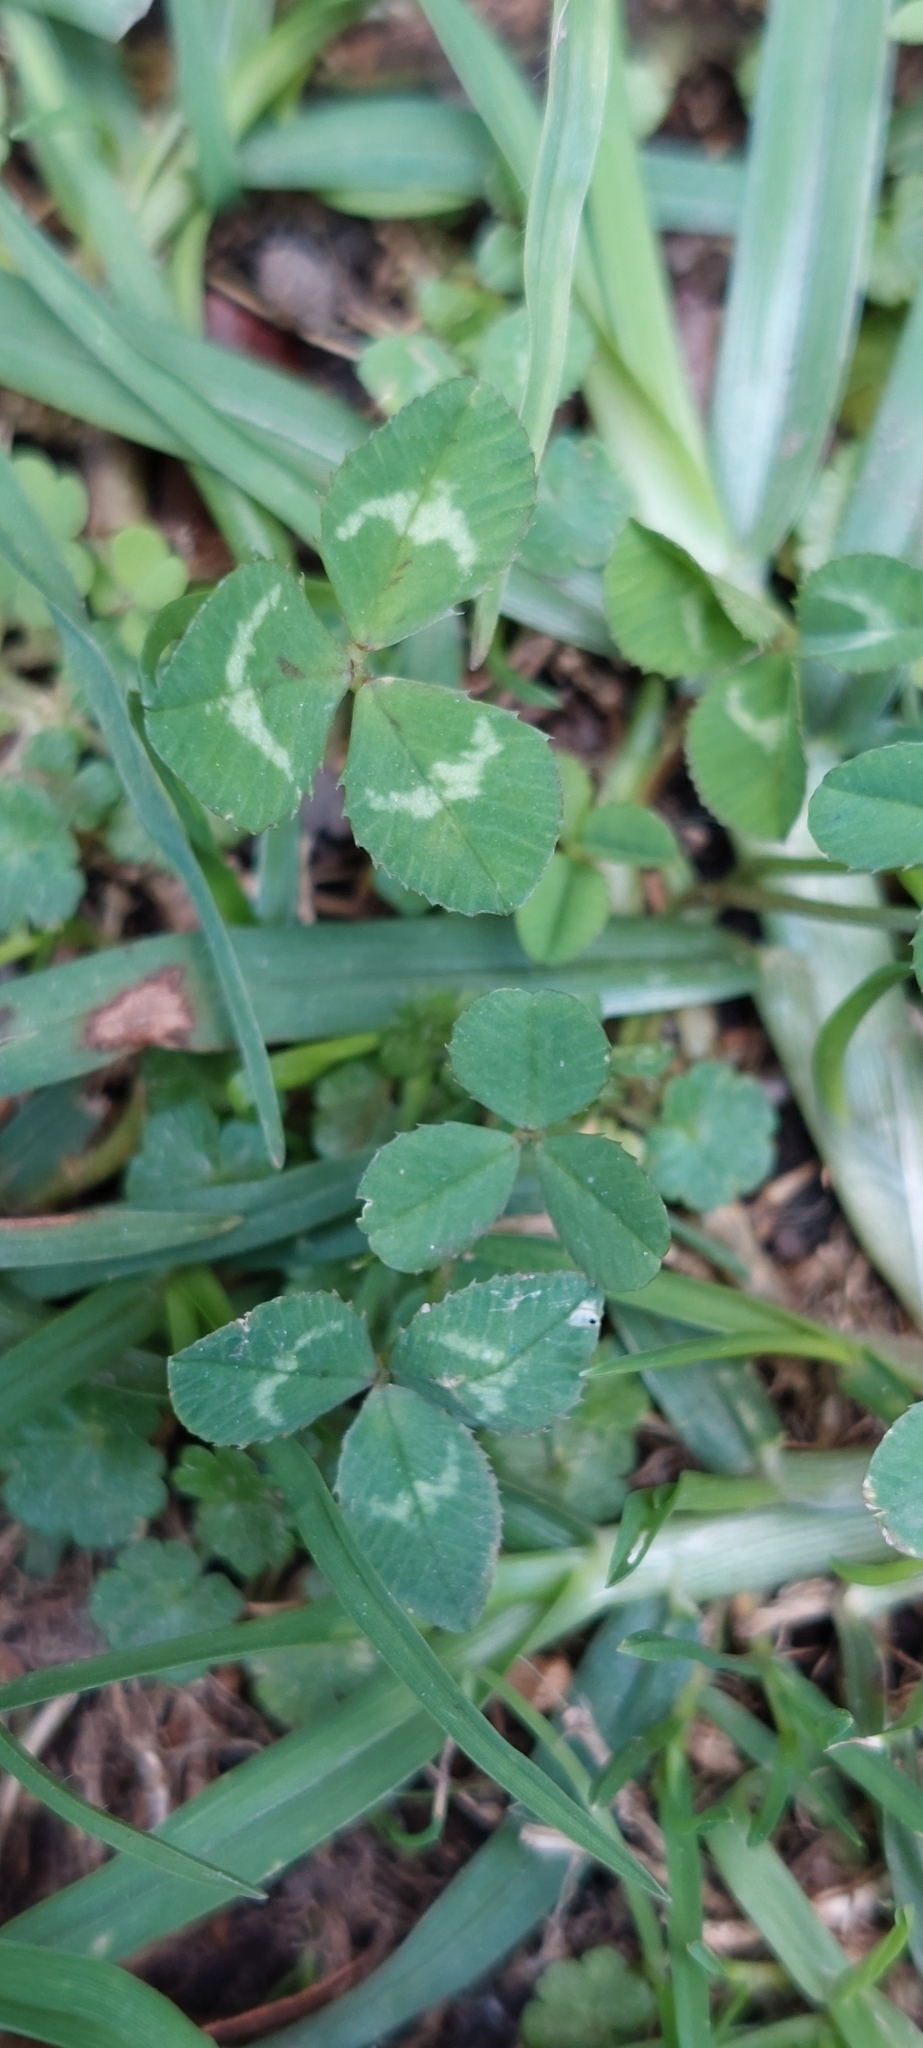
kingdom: Plantae
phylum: Tracheophyta
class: Magnoliopsida
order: Fabales
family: Fabaceae
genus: Trifolium
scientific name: Trifolium repens
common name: White clover
